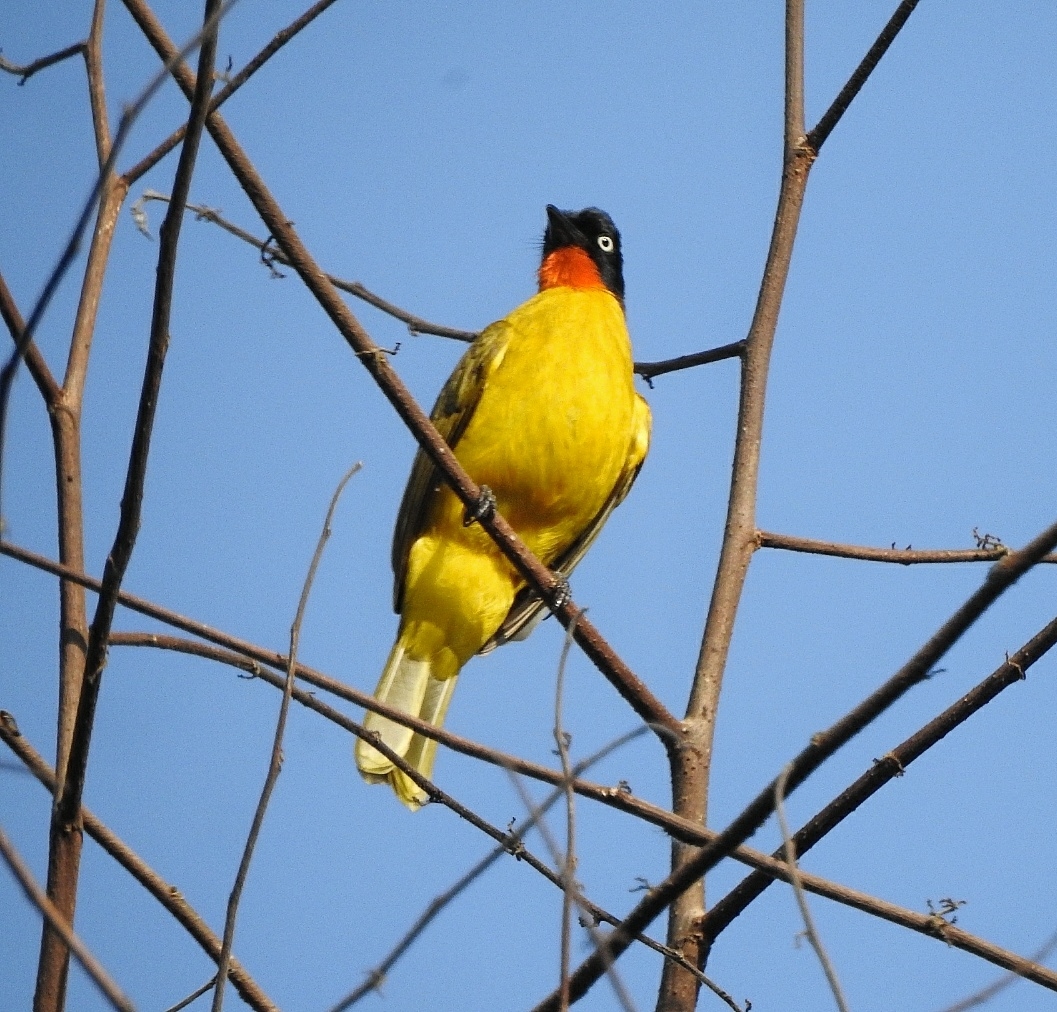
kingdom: Animalia
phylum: Chordata
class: Aves
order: Passeriformes
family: Pycnonotidae
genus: Pycnonotus
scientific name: Pycnonotus gularis
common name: Flame-throated bulbul
